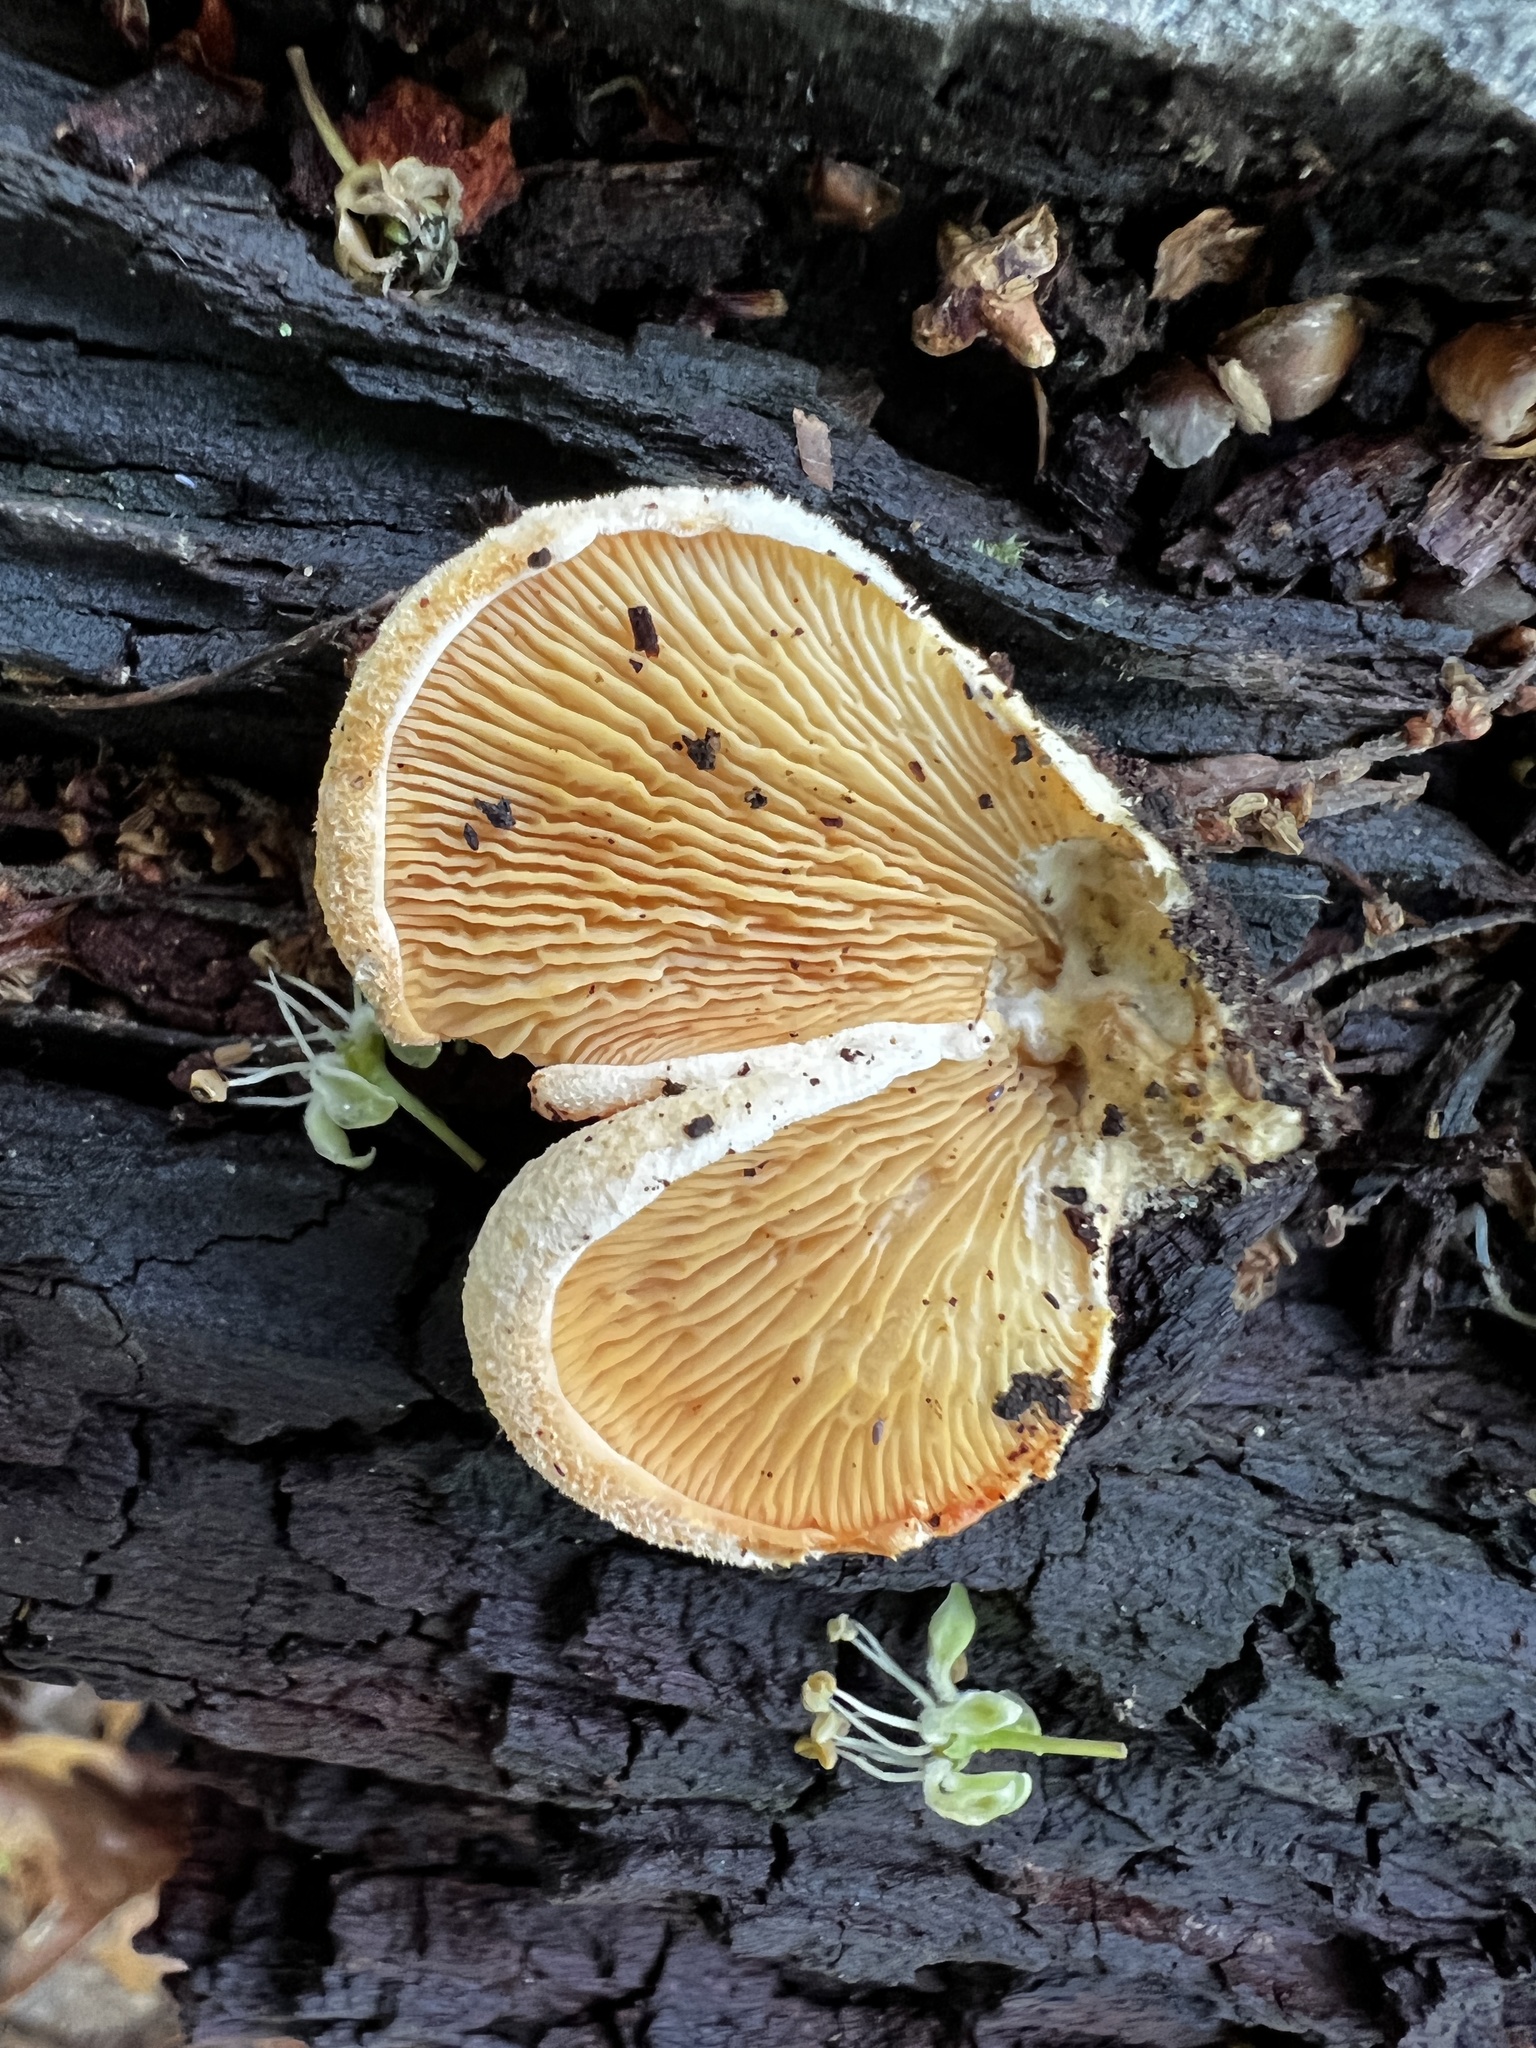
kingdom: Fungi
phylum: Basidiomycota
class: Agaricomycetes
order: Agaricales
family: Phyllotopsidaceae
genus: Phyllotopsis
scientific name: Phyllotopsis nidulans
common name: Orange mock oyster
